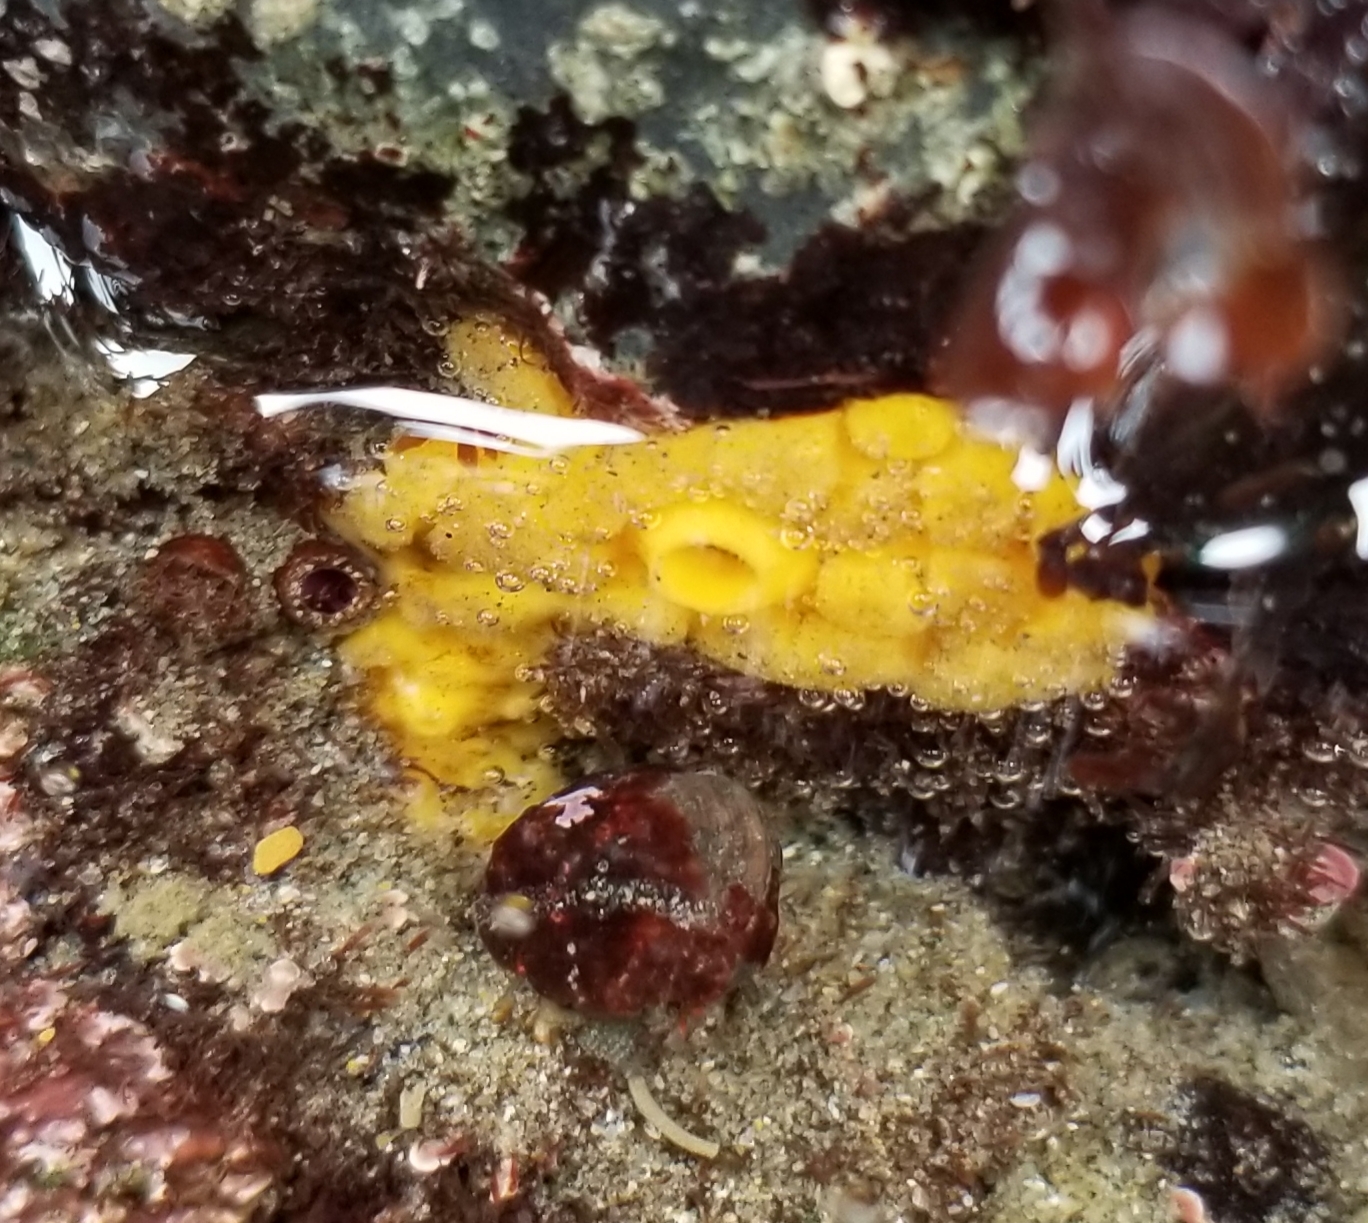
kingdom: Animalia
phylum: Porifera
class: Demospongiae
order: Clionaida
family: Clionaidae
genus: Cliona
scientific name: Cliona californiana
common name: California boring horny sponge
